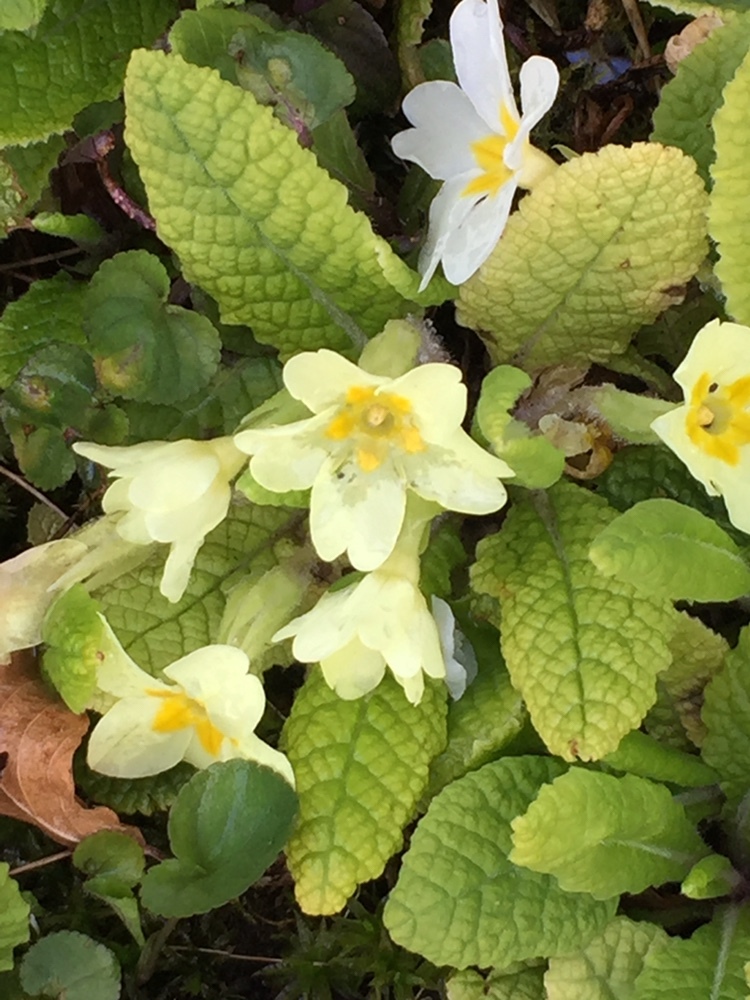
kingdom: Plantae
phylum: Tracheophyta
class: Magnoliopsida
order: Ericales
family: Primulaceae
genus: Primula
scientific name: Primula vulgaris
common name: Primrose
